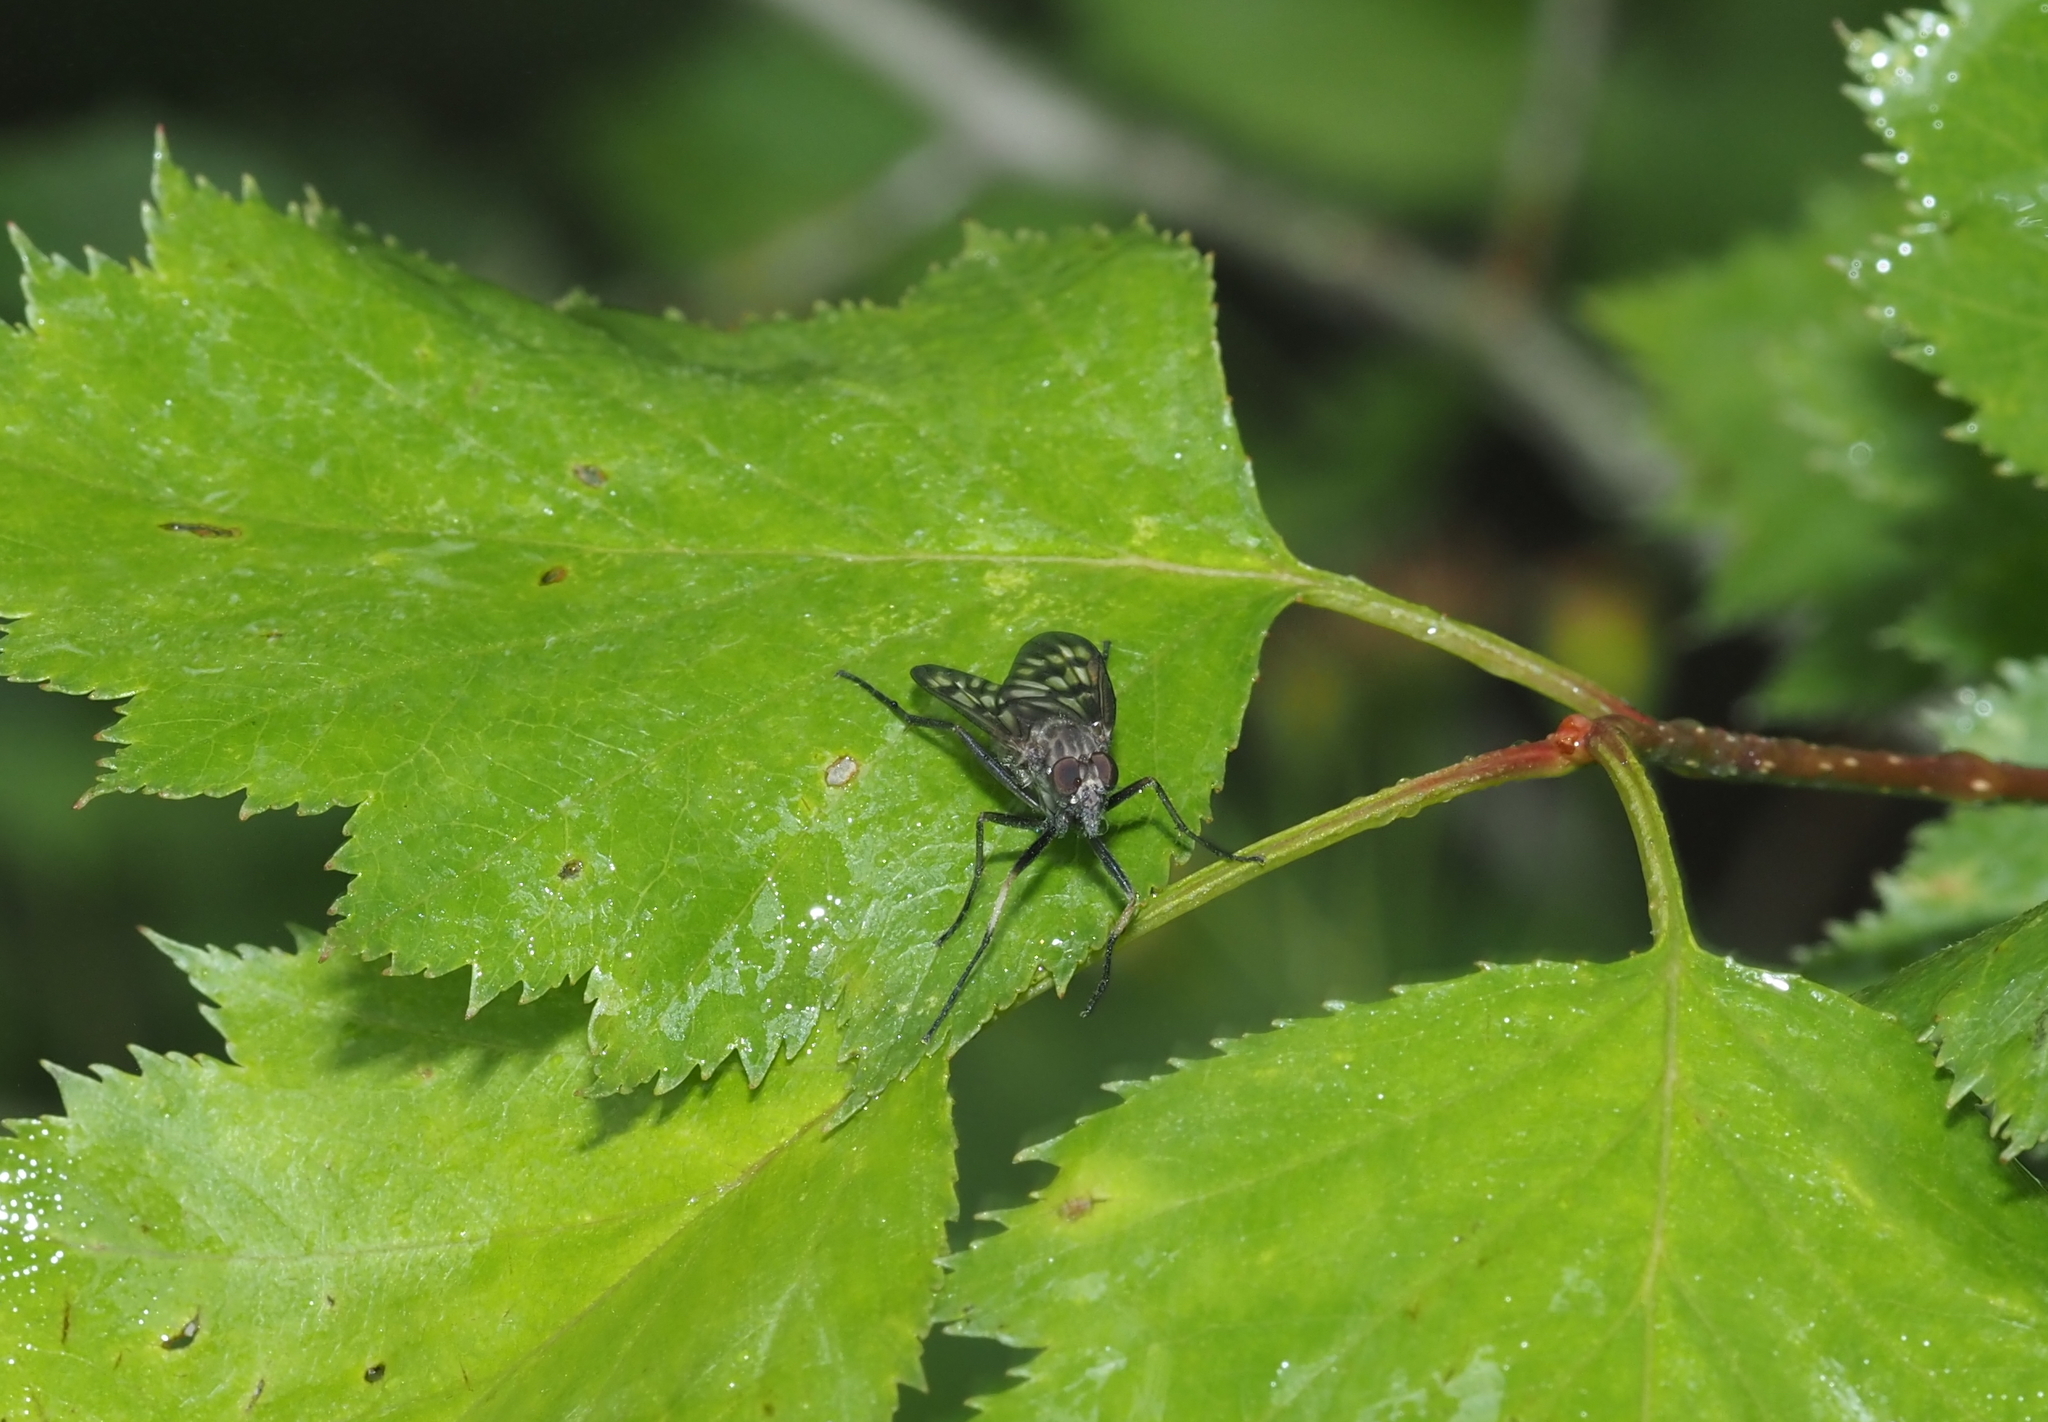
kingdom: Animalia
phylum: Arthropoda
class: Insecta
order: Diptera
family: Rhagionidae
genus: Rhagio
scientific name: Rhagio mystaceus
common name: Common snipe fly
